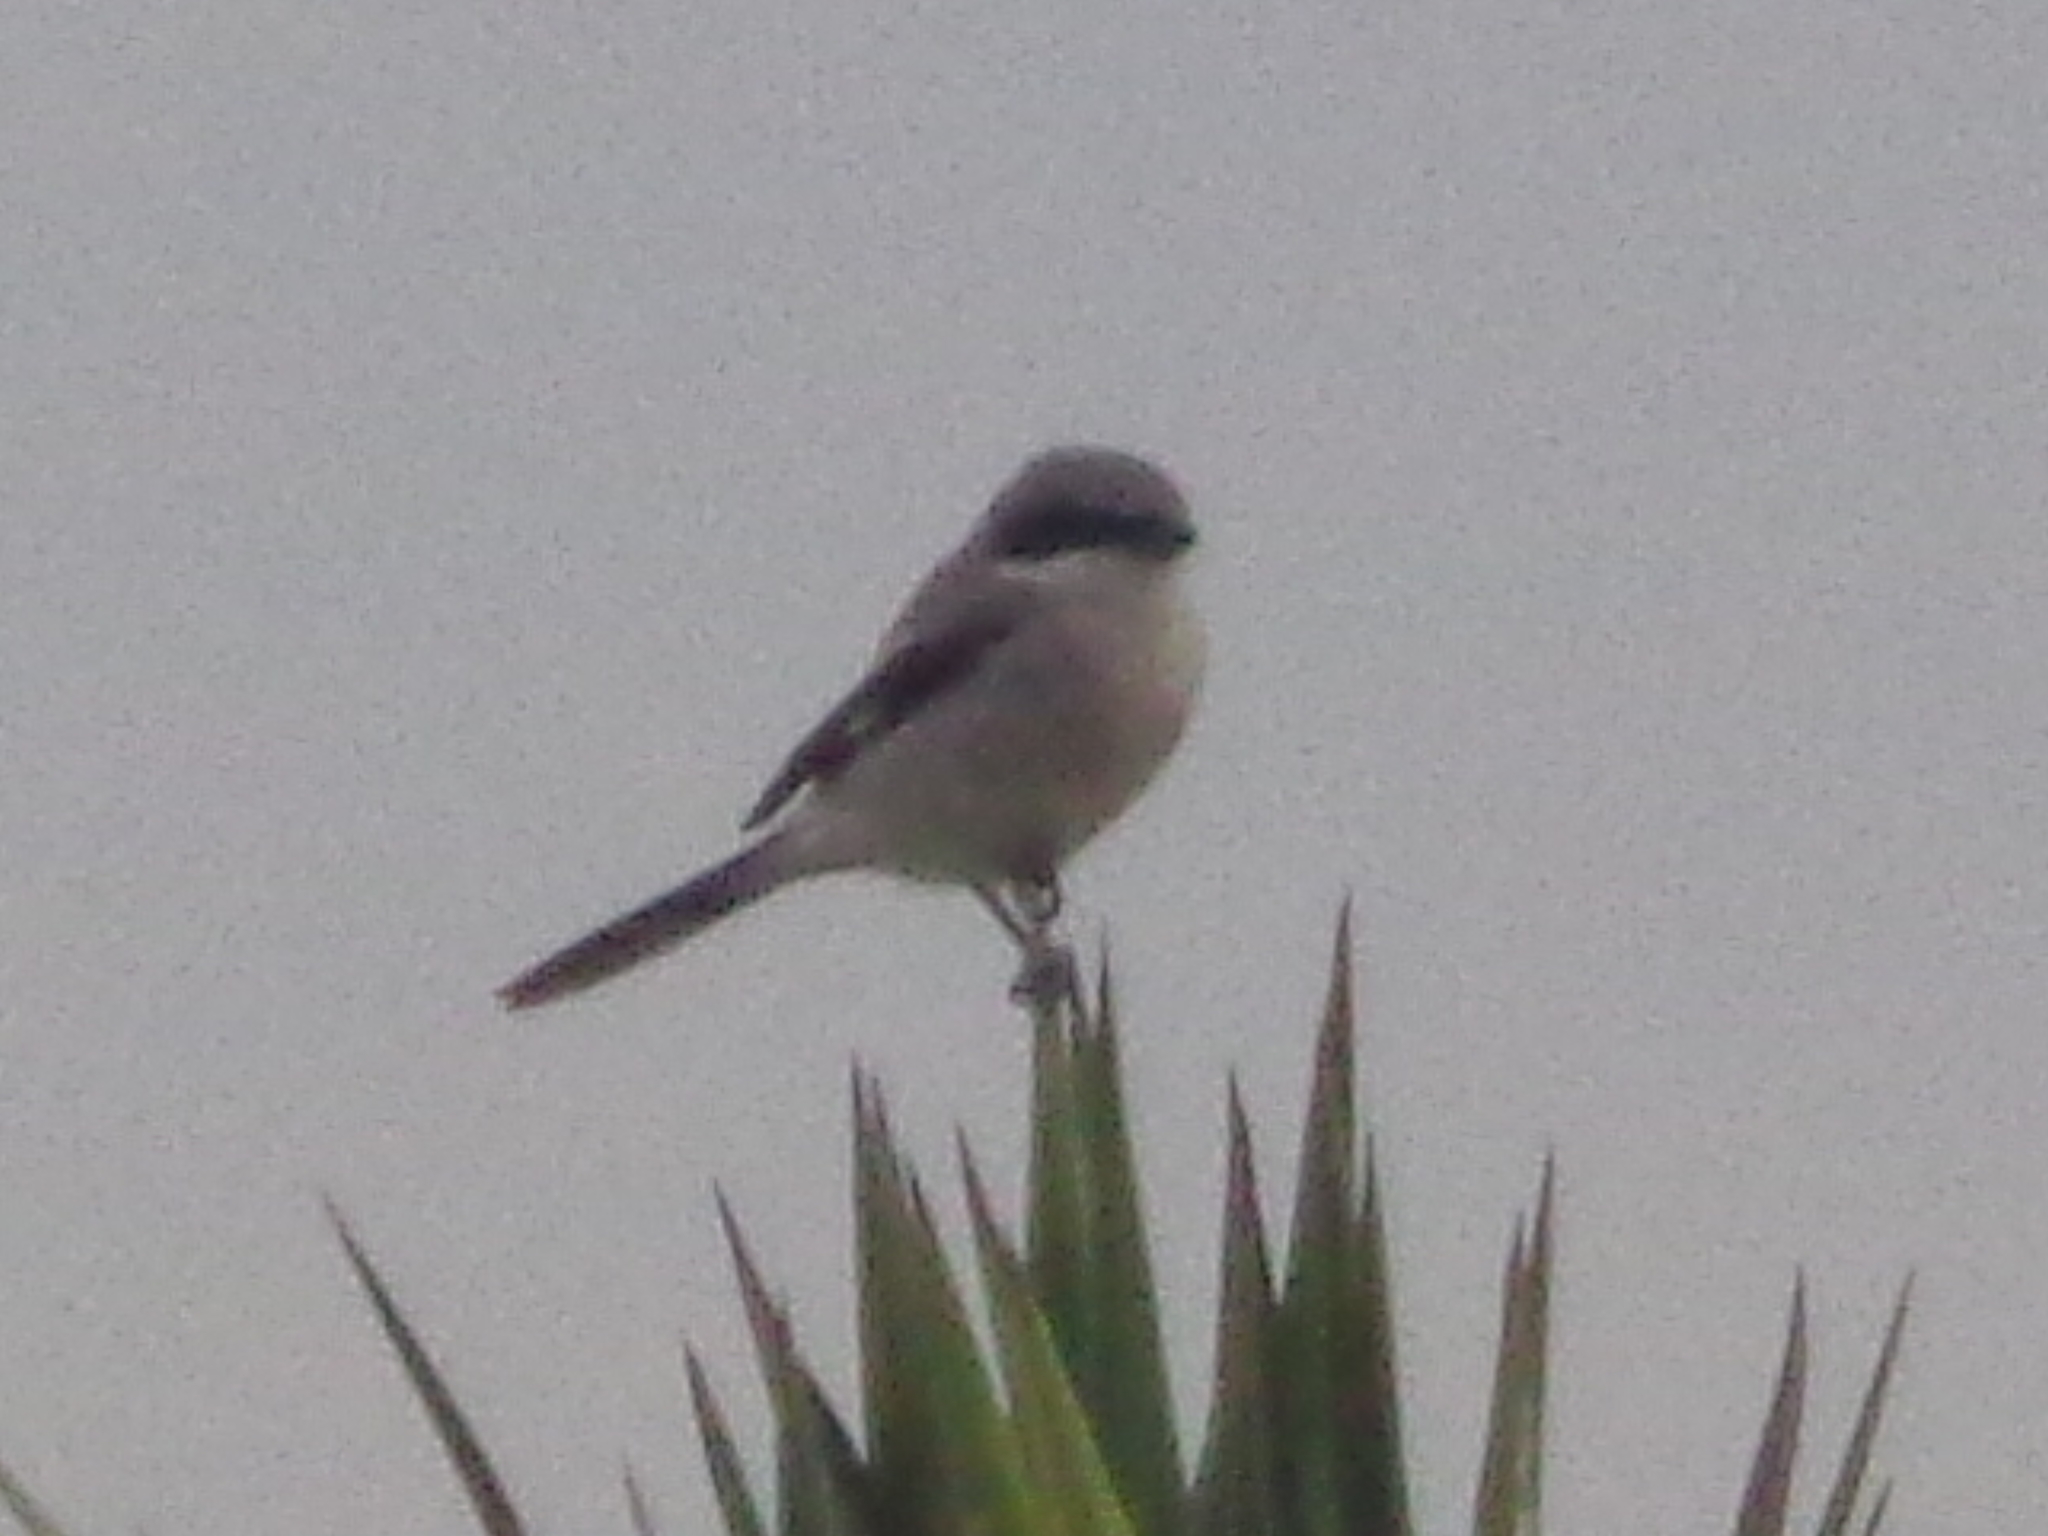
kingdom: Animalia
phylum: Chordata
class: Aves
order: Passeriformes
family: Laniidae
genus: Lanius
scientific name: Lanius ludovicianus
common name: Loggerhead shrike
